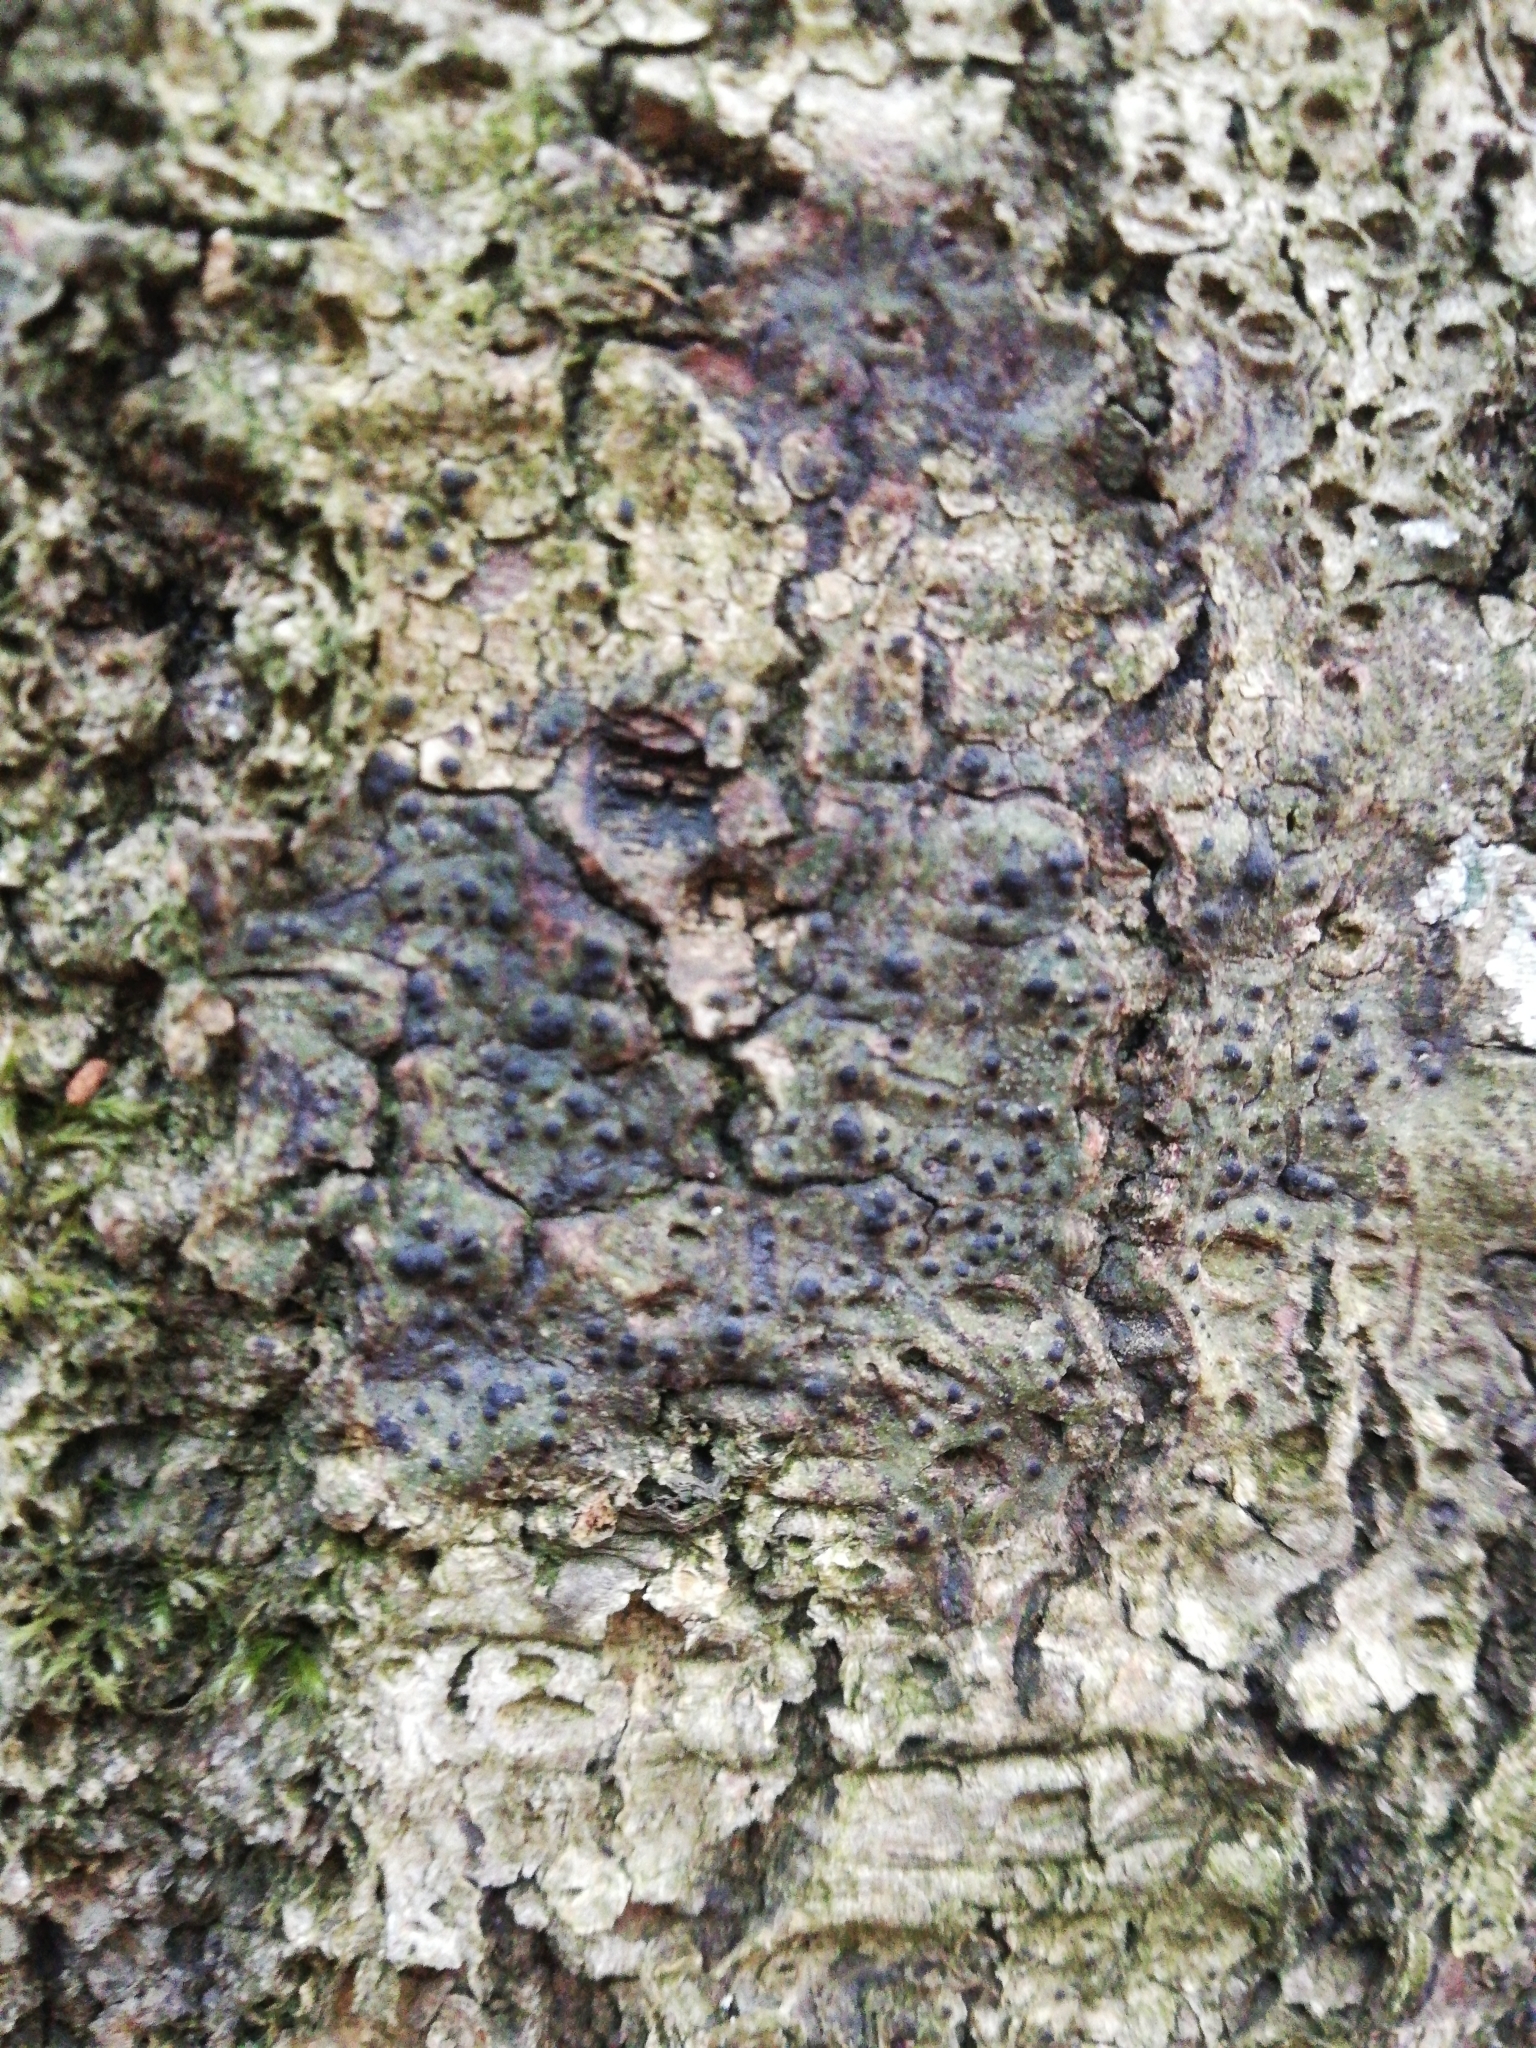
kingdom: Fungi
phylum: Ascomycota
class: Eurotiomycetes
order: Pyrenulales
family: Pyrenulaceae
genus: Pyrenula
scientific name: Pyrenula nitida
